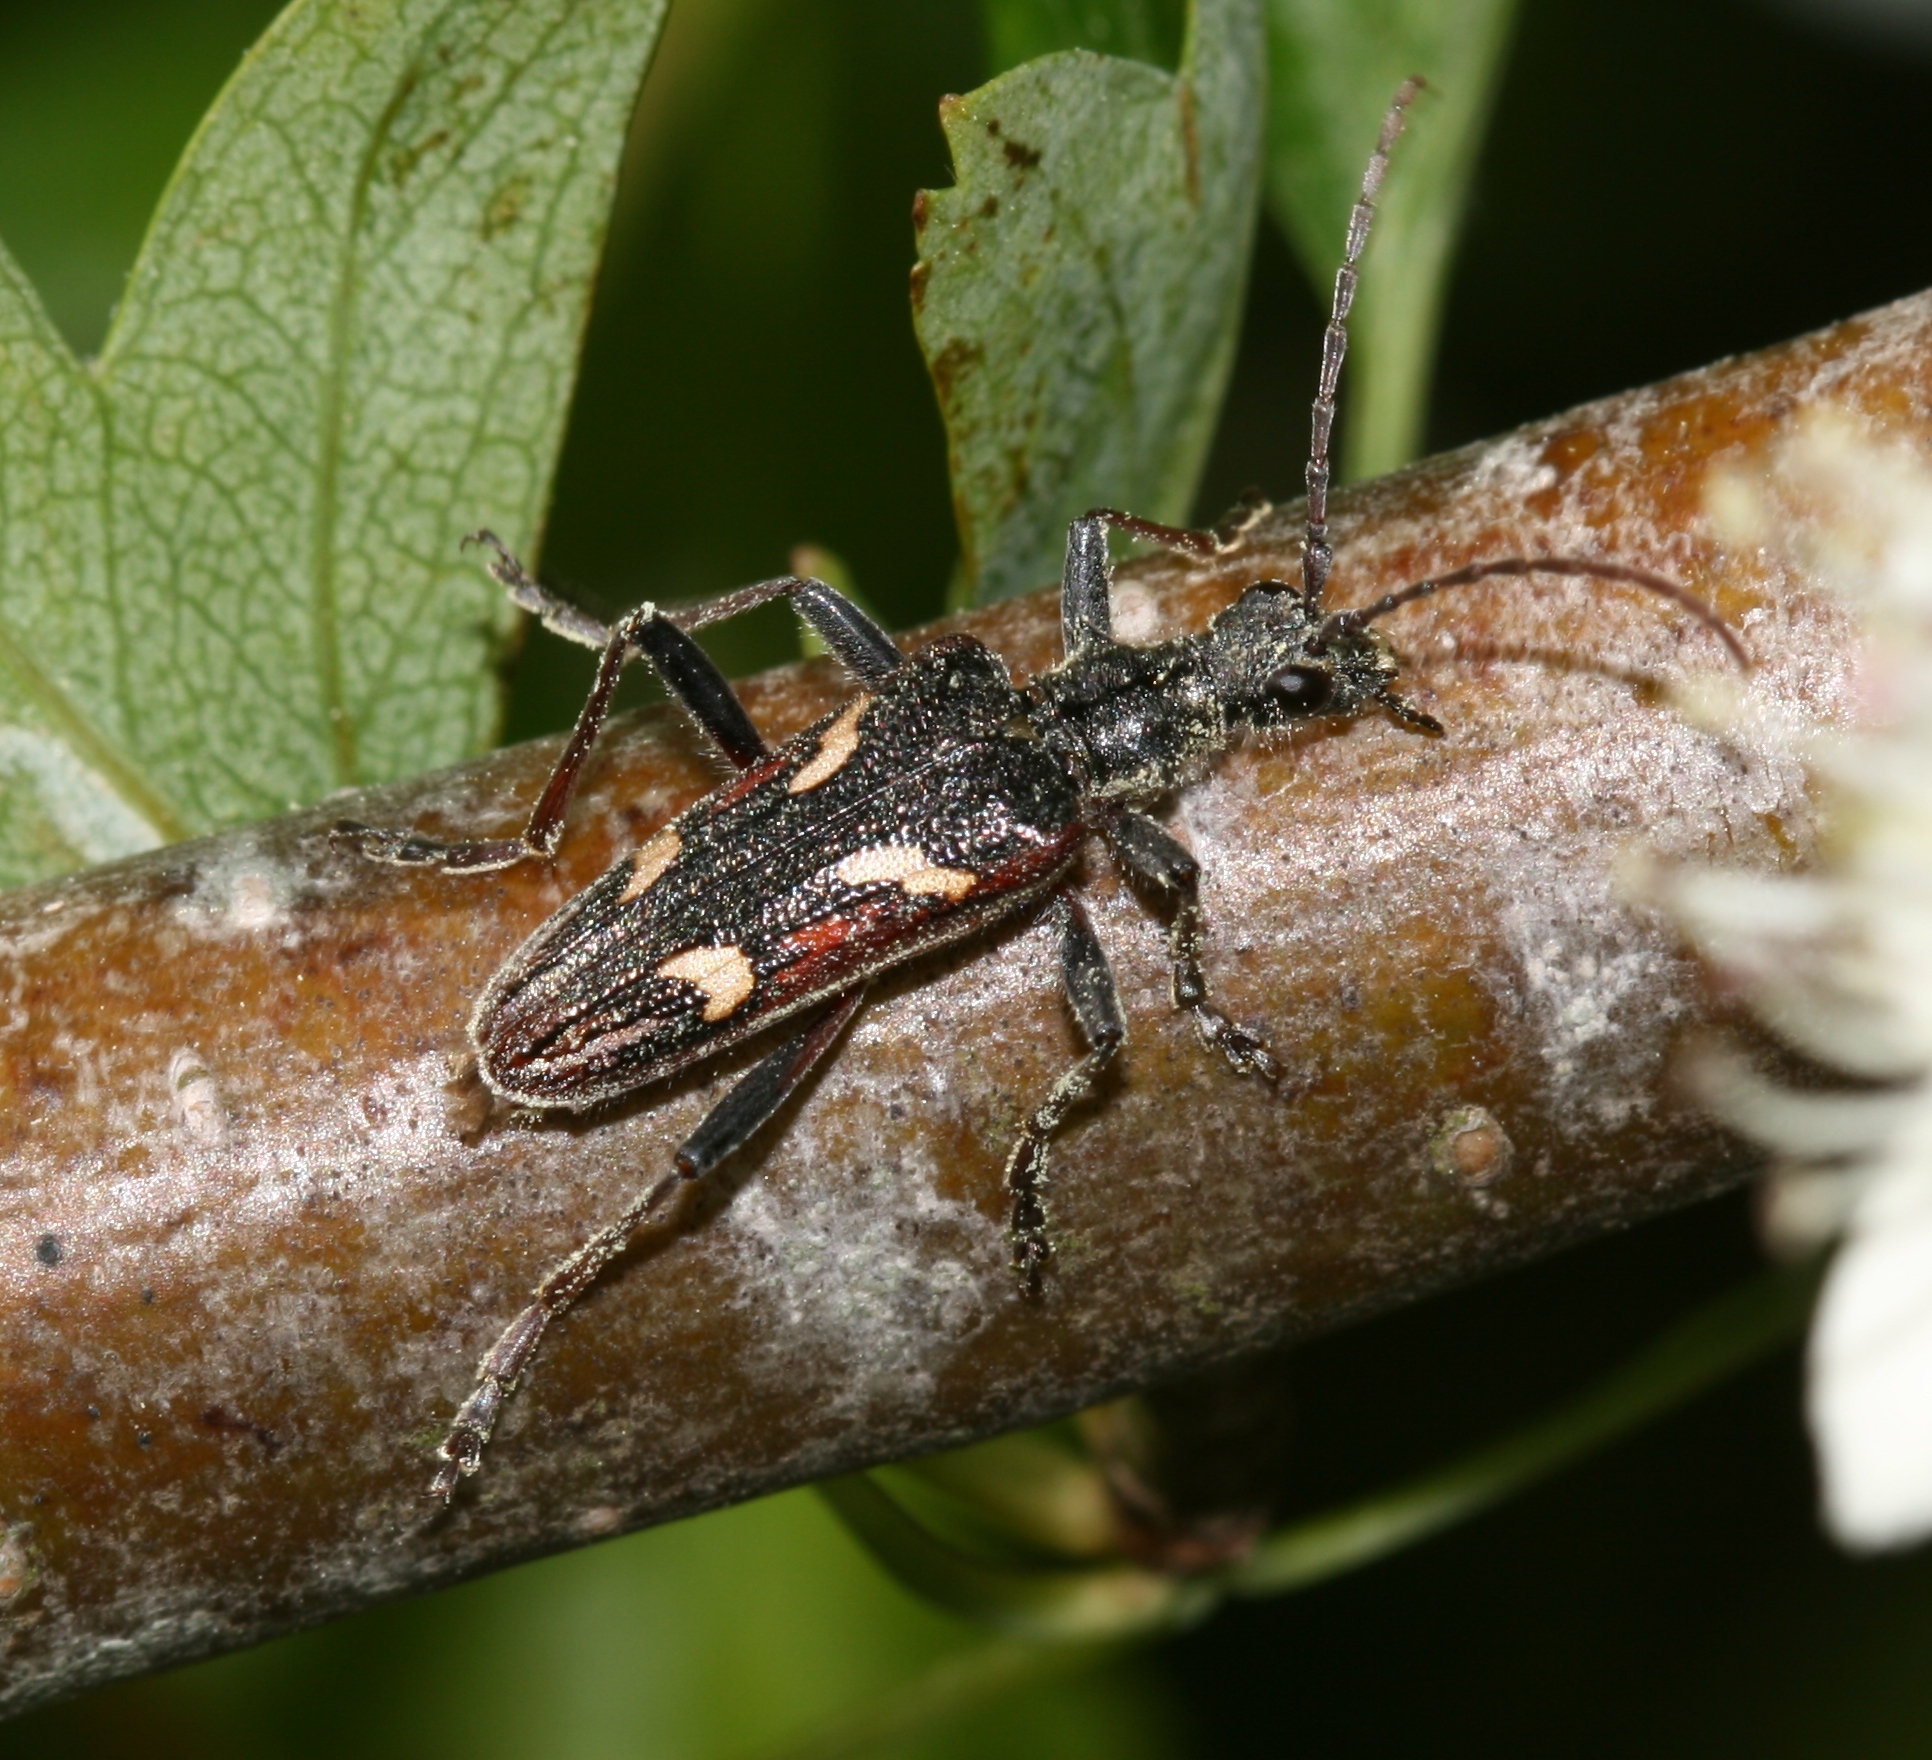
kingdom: Animalia
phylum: Arthropoda
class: Insecta
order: Coleoptera
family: Cerambycidae
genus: Rhagium
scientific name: Rhagium bifasciatum
